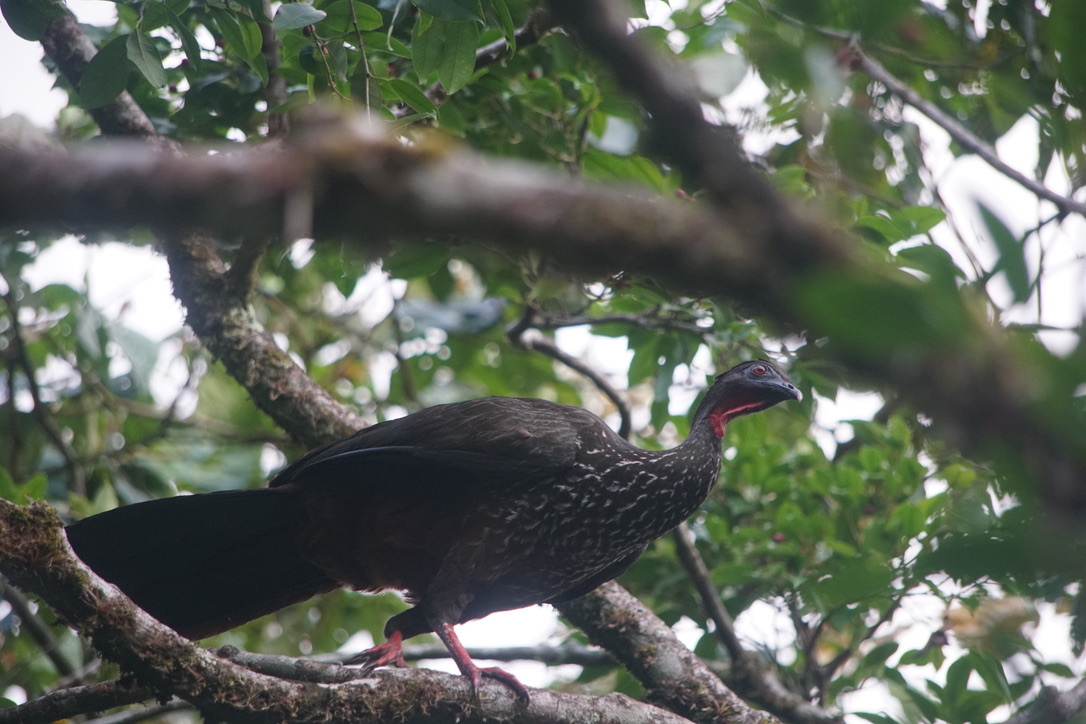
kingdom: Animalia
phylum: Chordata
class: Aves
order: Galliformes
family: Cracidae
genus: Penelope
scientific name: Penelope purpurascens
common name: Crested guan
